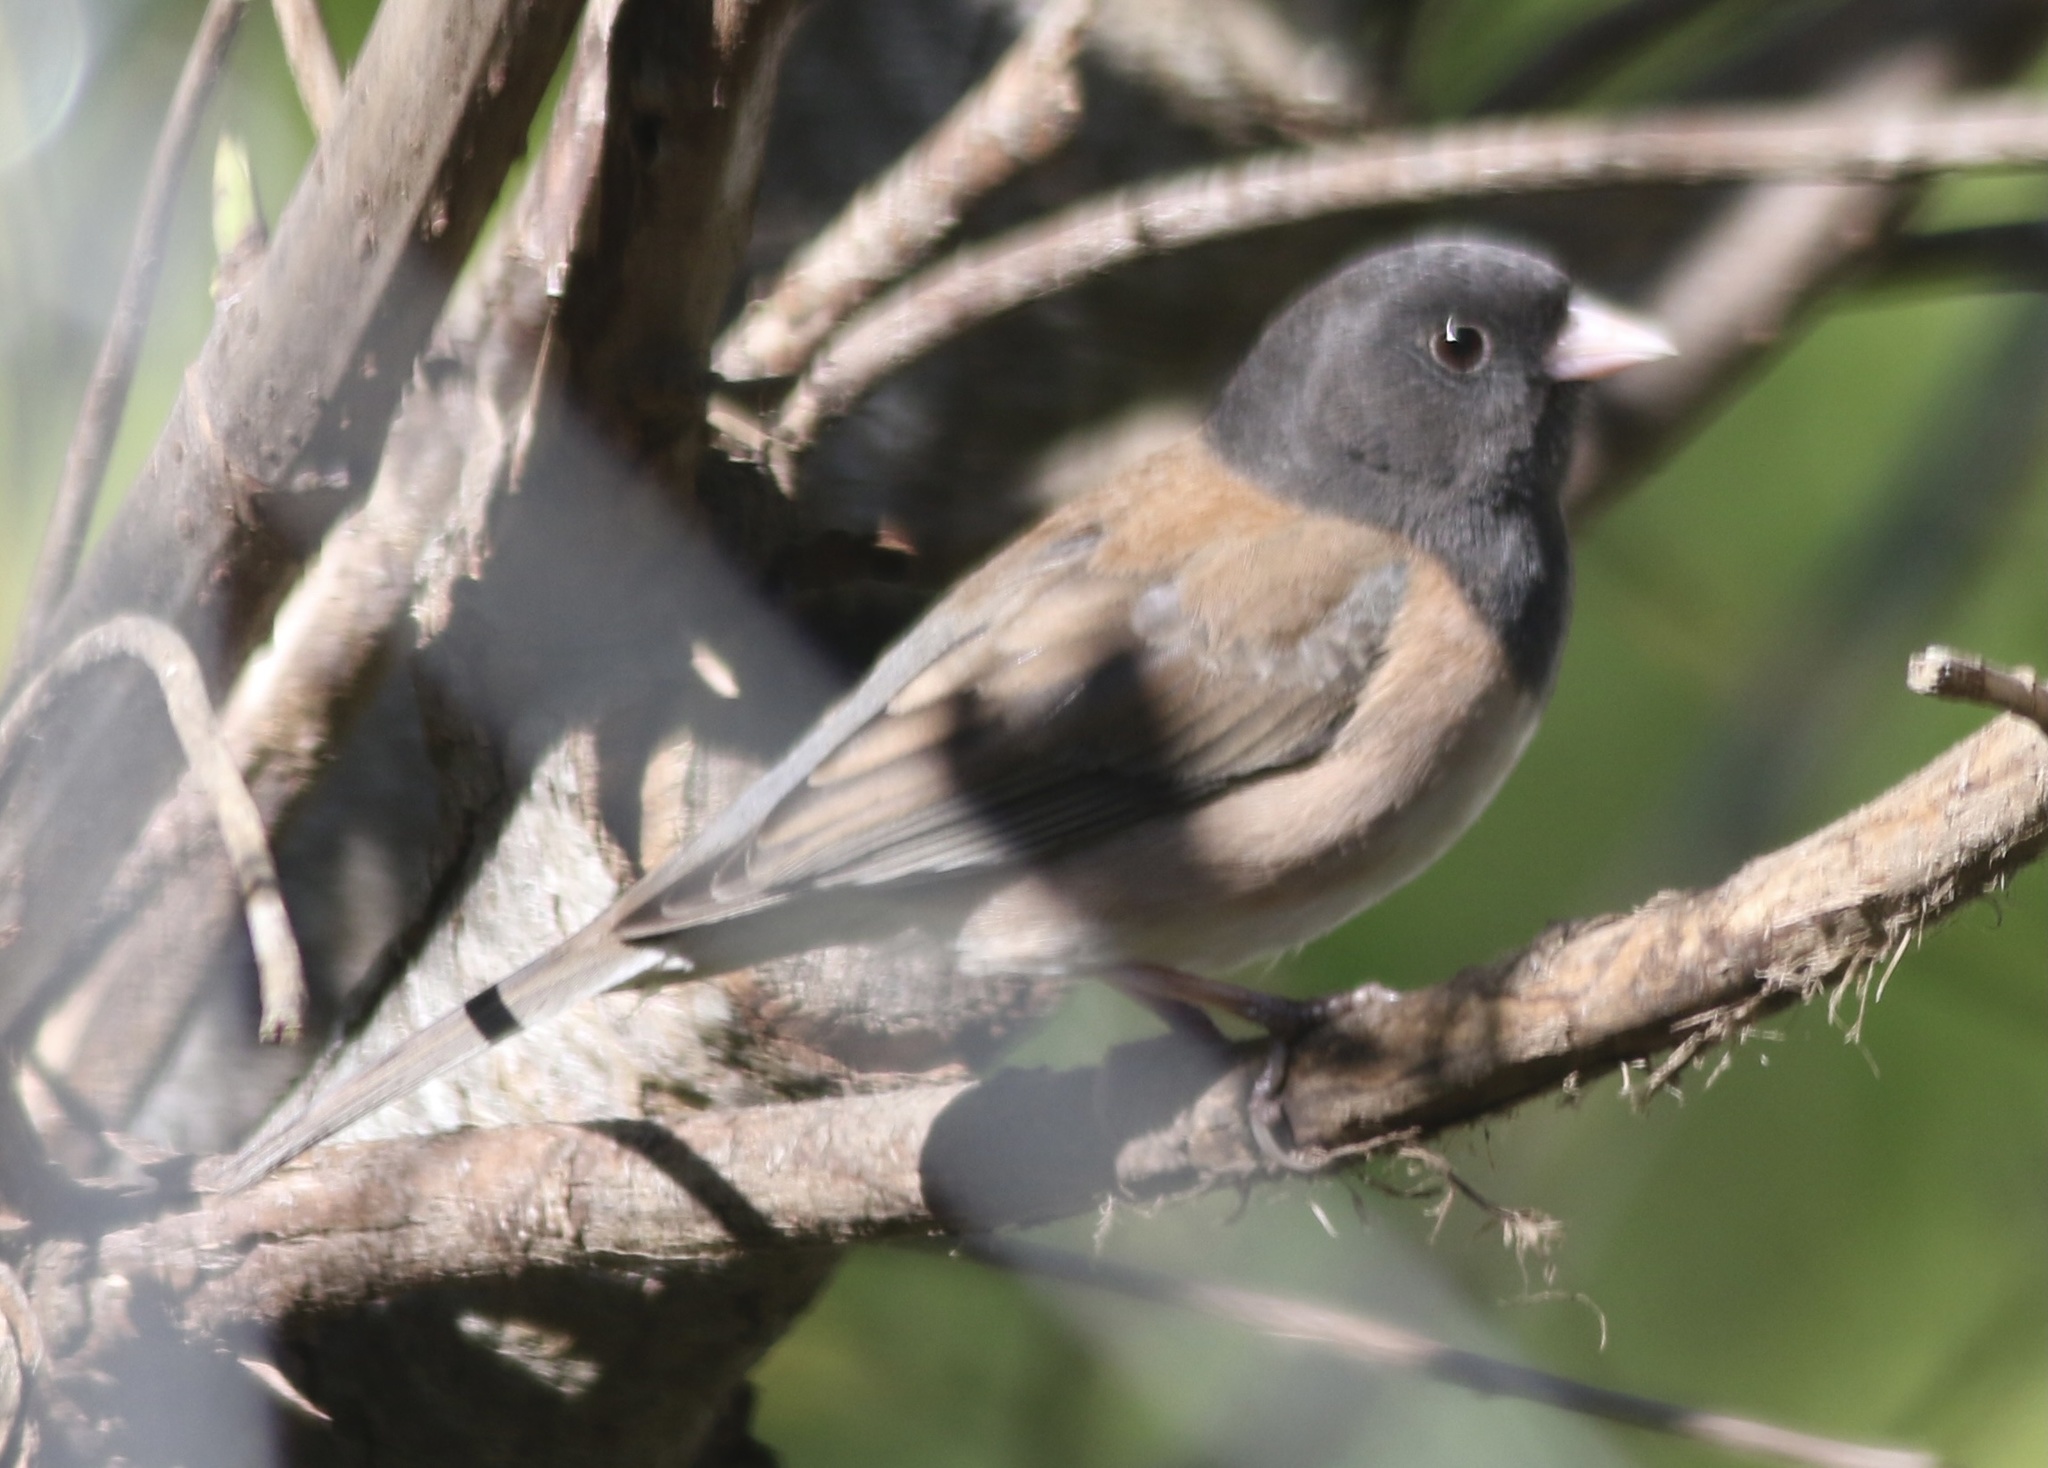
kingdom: Animalia
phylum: Chordata
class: Aves
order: Passeriformes
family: Passerellidae
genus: Junco
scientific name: Junco hyemalis
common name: Dark-eyed junco
